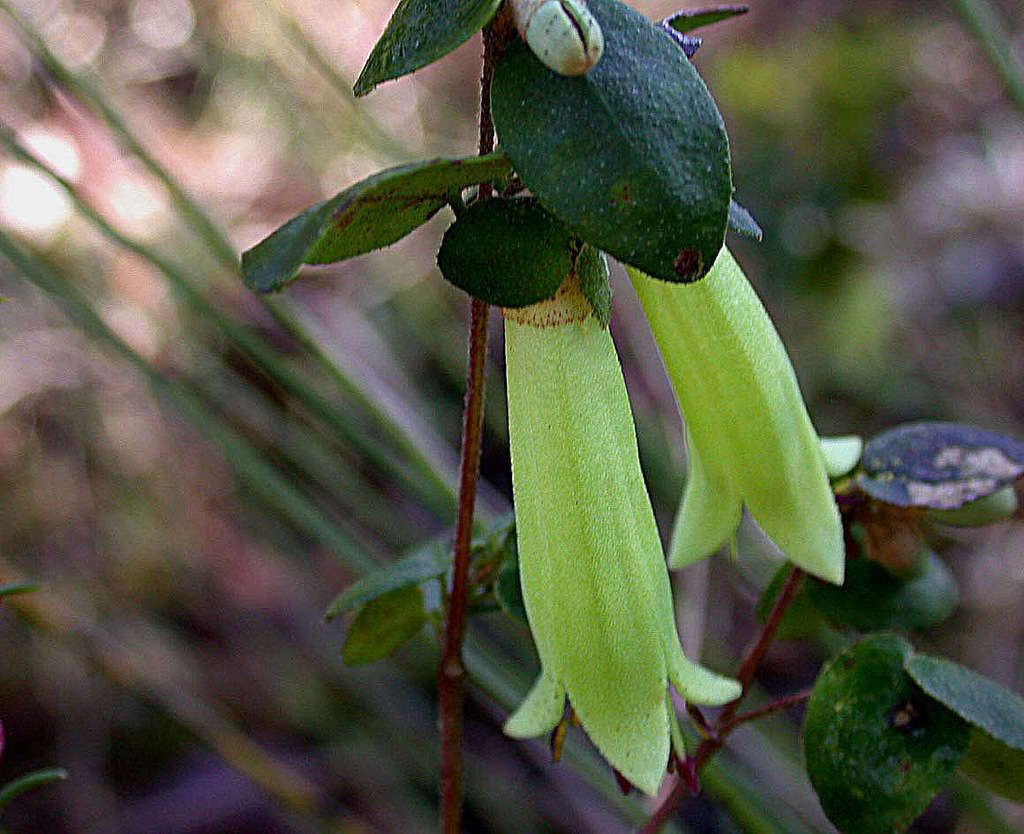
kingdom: Plantae
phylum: Tracheophyta
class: Magnoliopsida
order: Sapindales
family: Rutaceae
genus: Correa
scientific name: Correa reflexa
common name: Common correa
